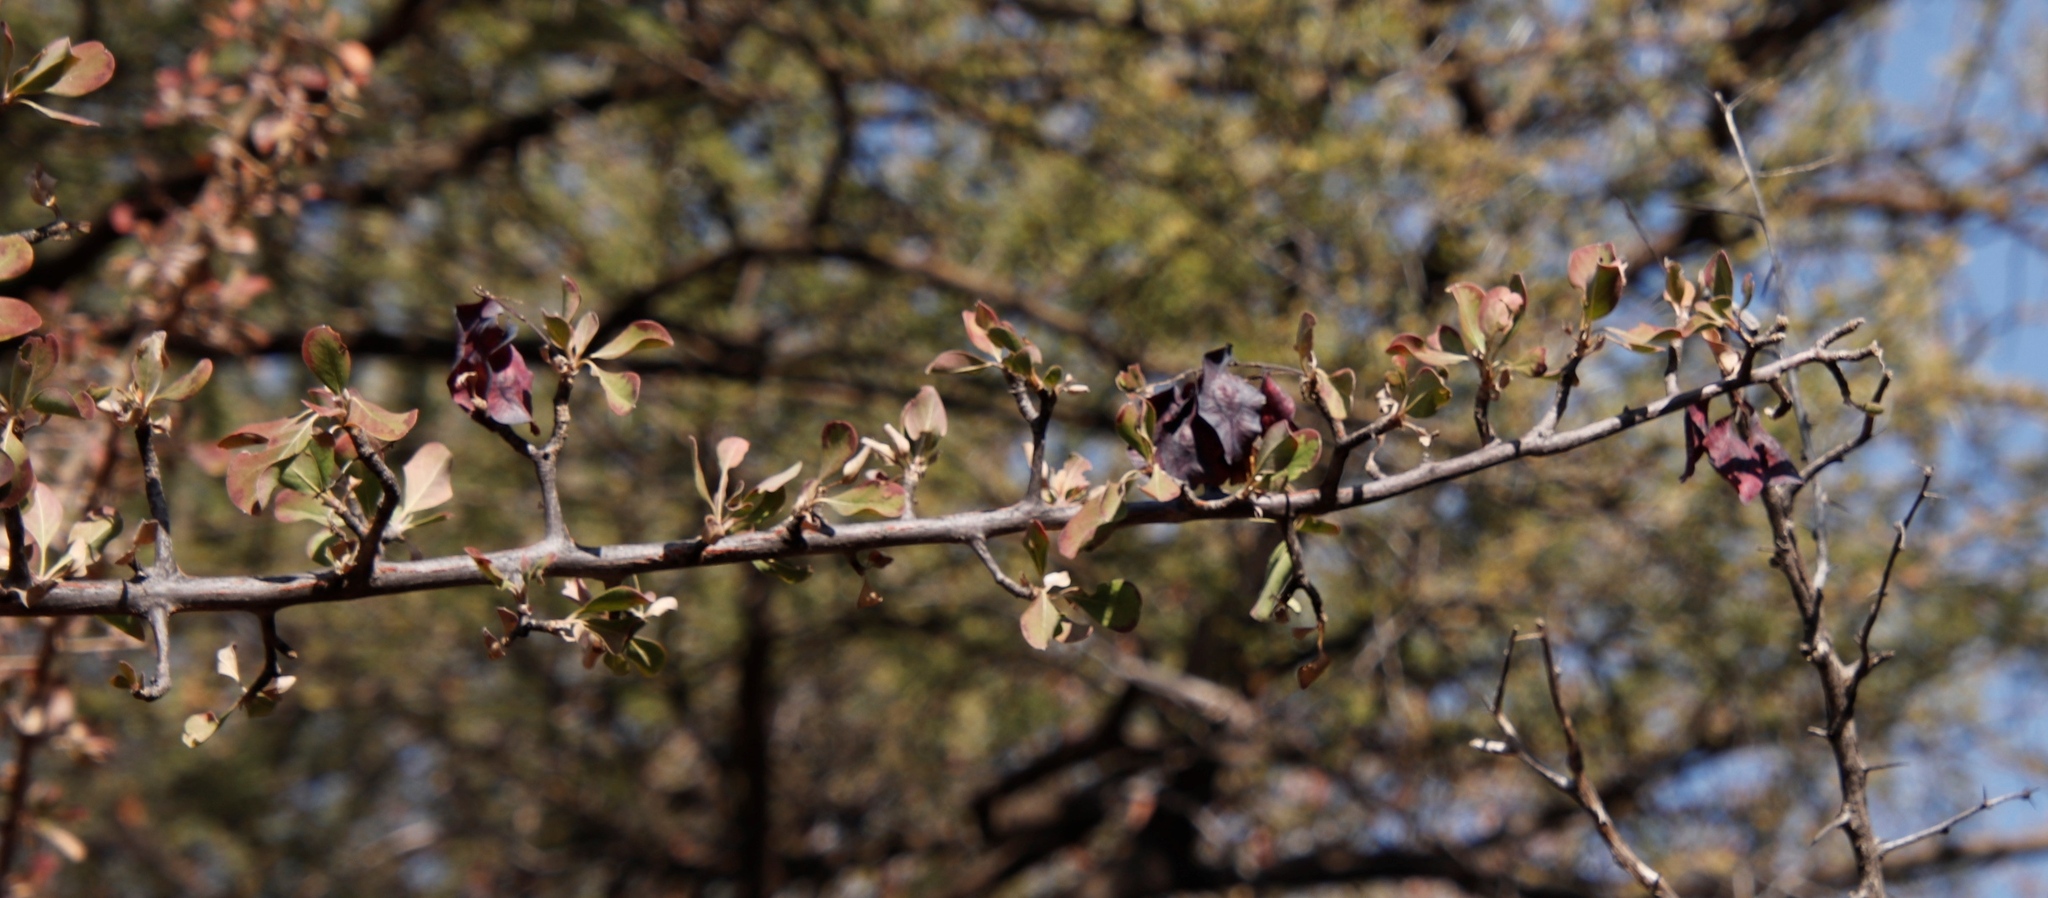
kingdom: Plantae
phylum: Tracheophyta
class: Magnoliopsida
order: Myrtales
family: Combretaceae
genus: Terminalia
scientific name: Terminalia prunioides
